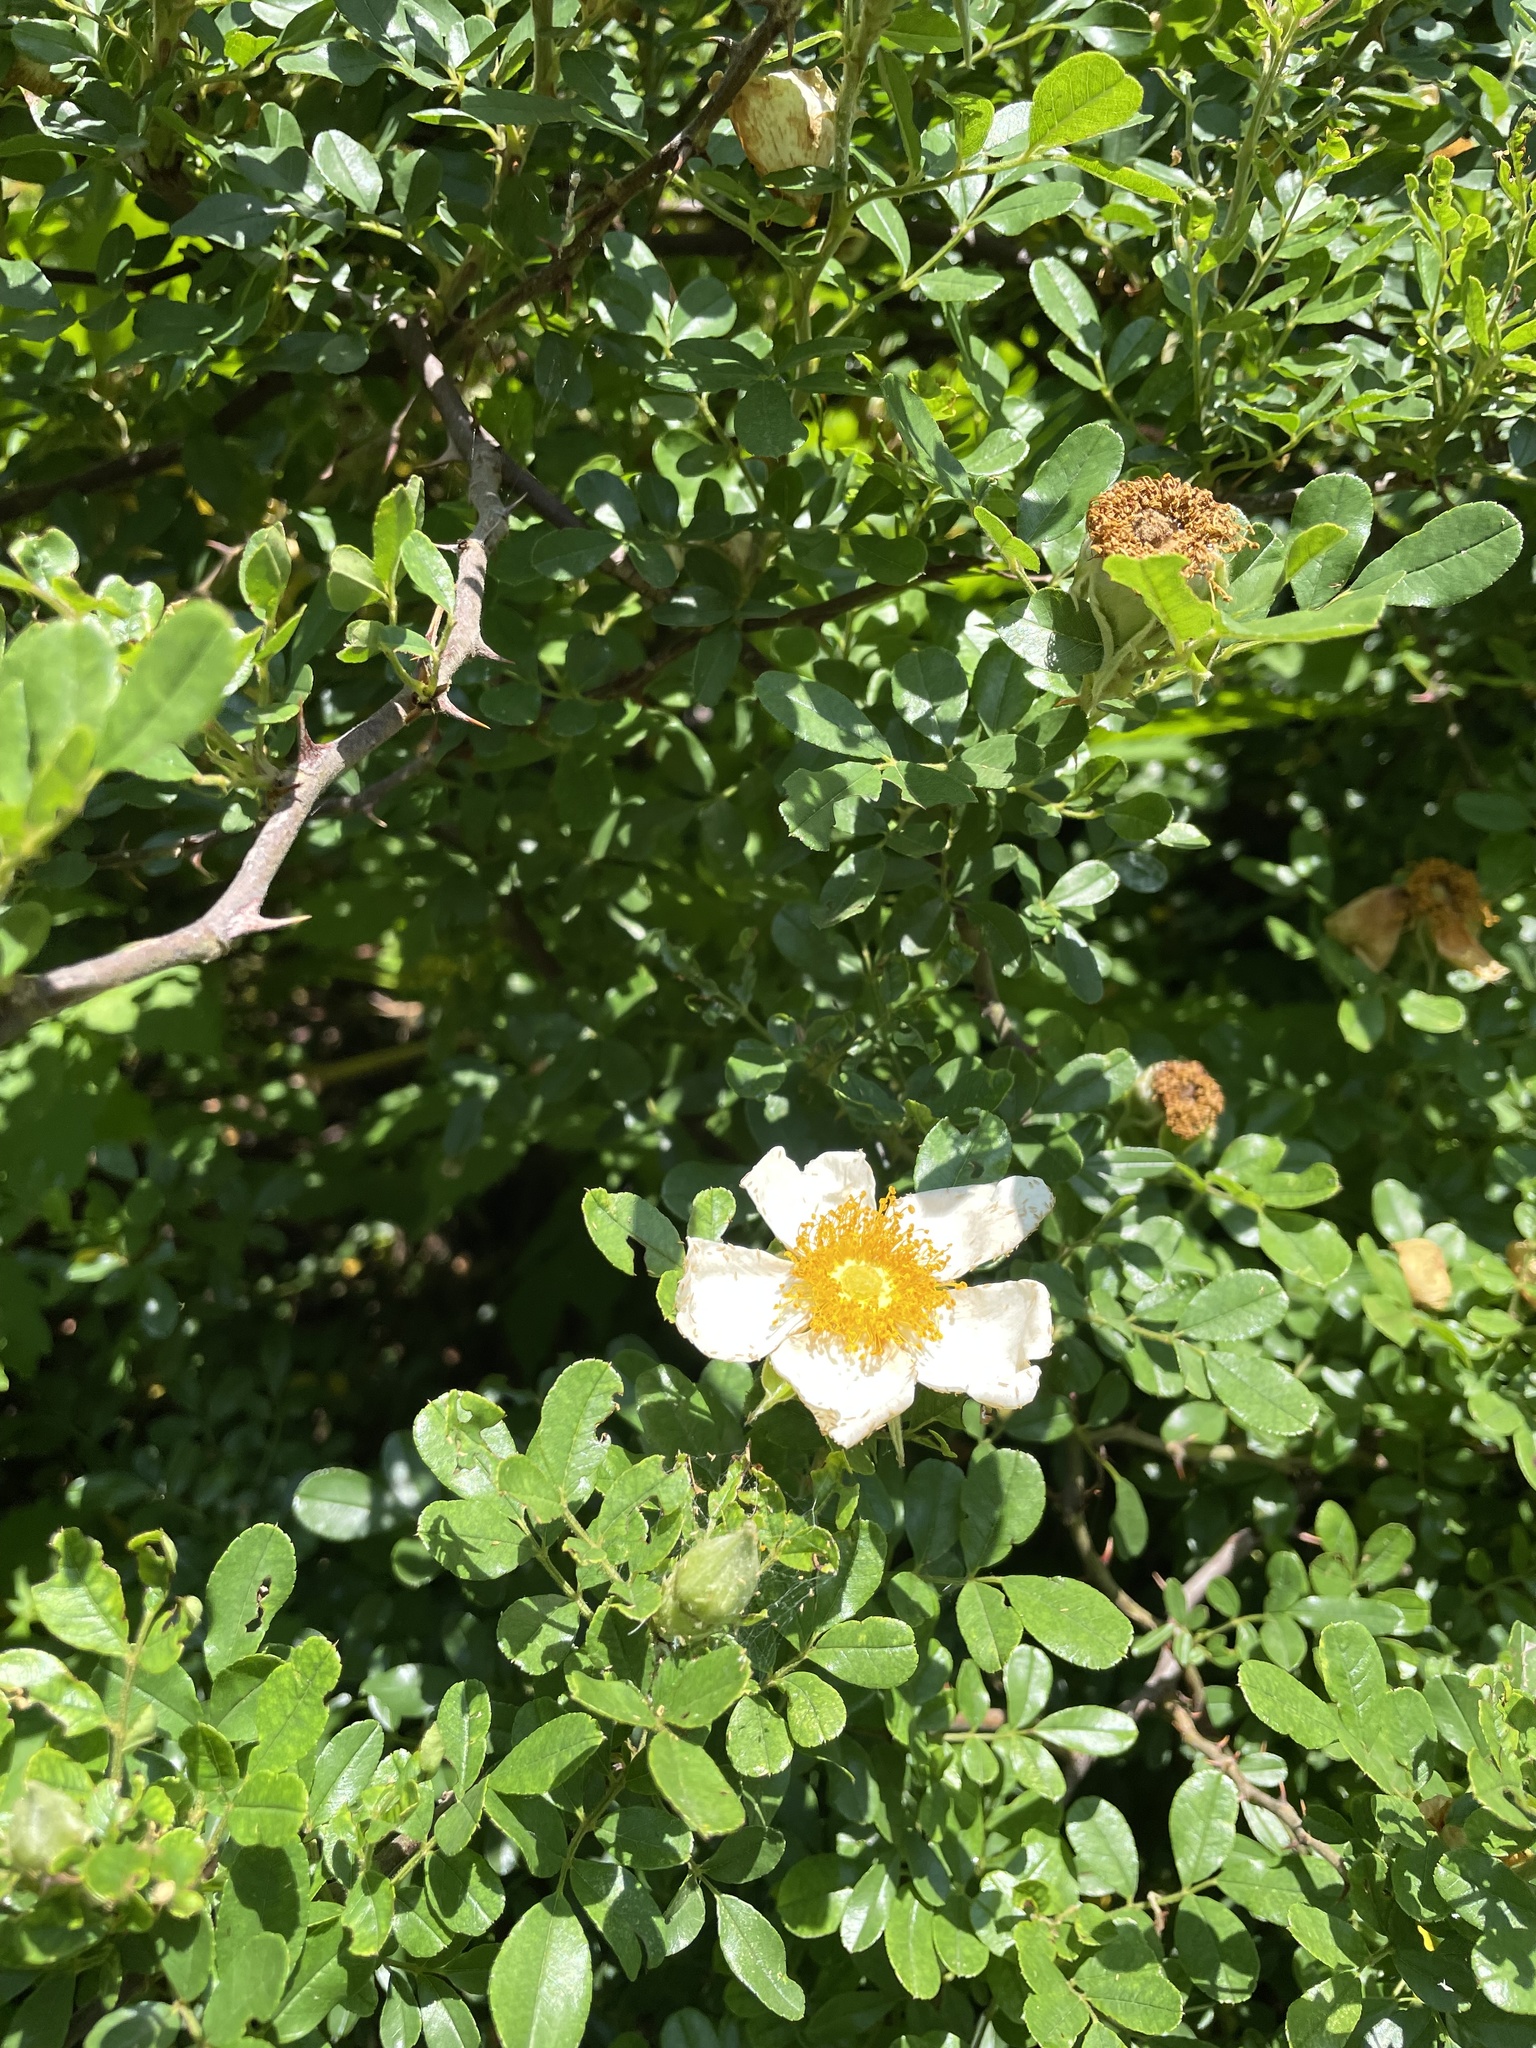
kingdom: Plantae
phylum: Tracheophyta
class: Magnoliopsida
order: Rosales
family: Rosaceae
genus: Rosa
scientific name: Rosa bracteata
